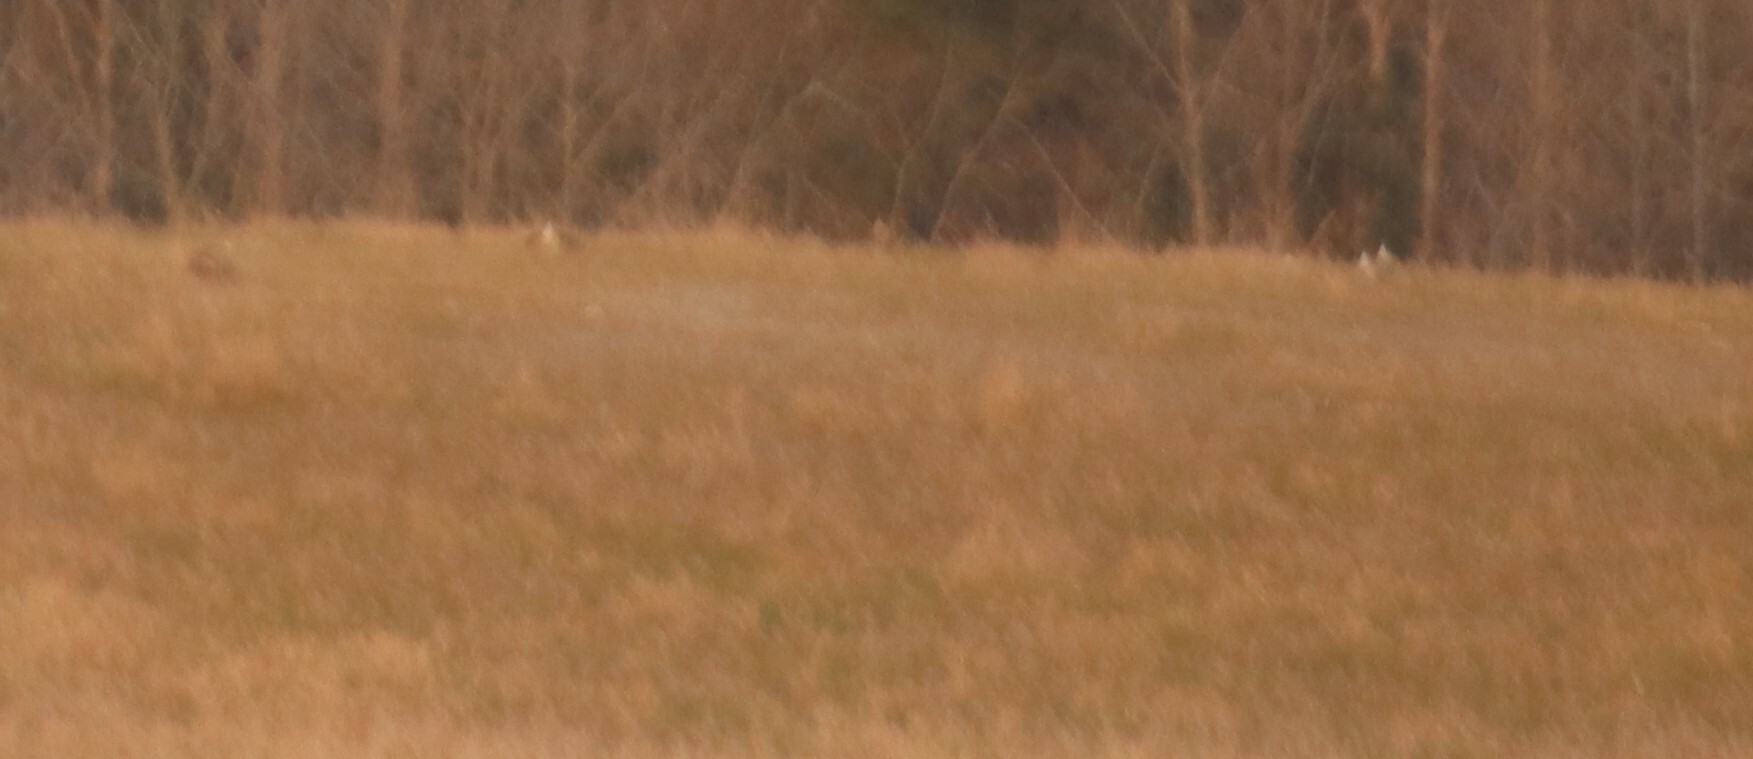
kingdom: Animalia
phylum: Chordata
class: Aves
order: Galliformes
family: Phasianidae
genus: Tympanuchus
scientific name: Tympanuchus phasianellus
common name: Sharp-tailed grouse
